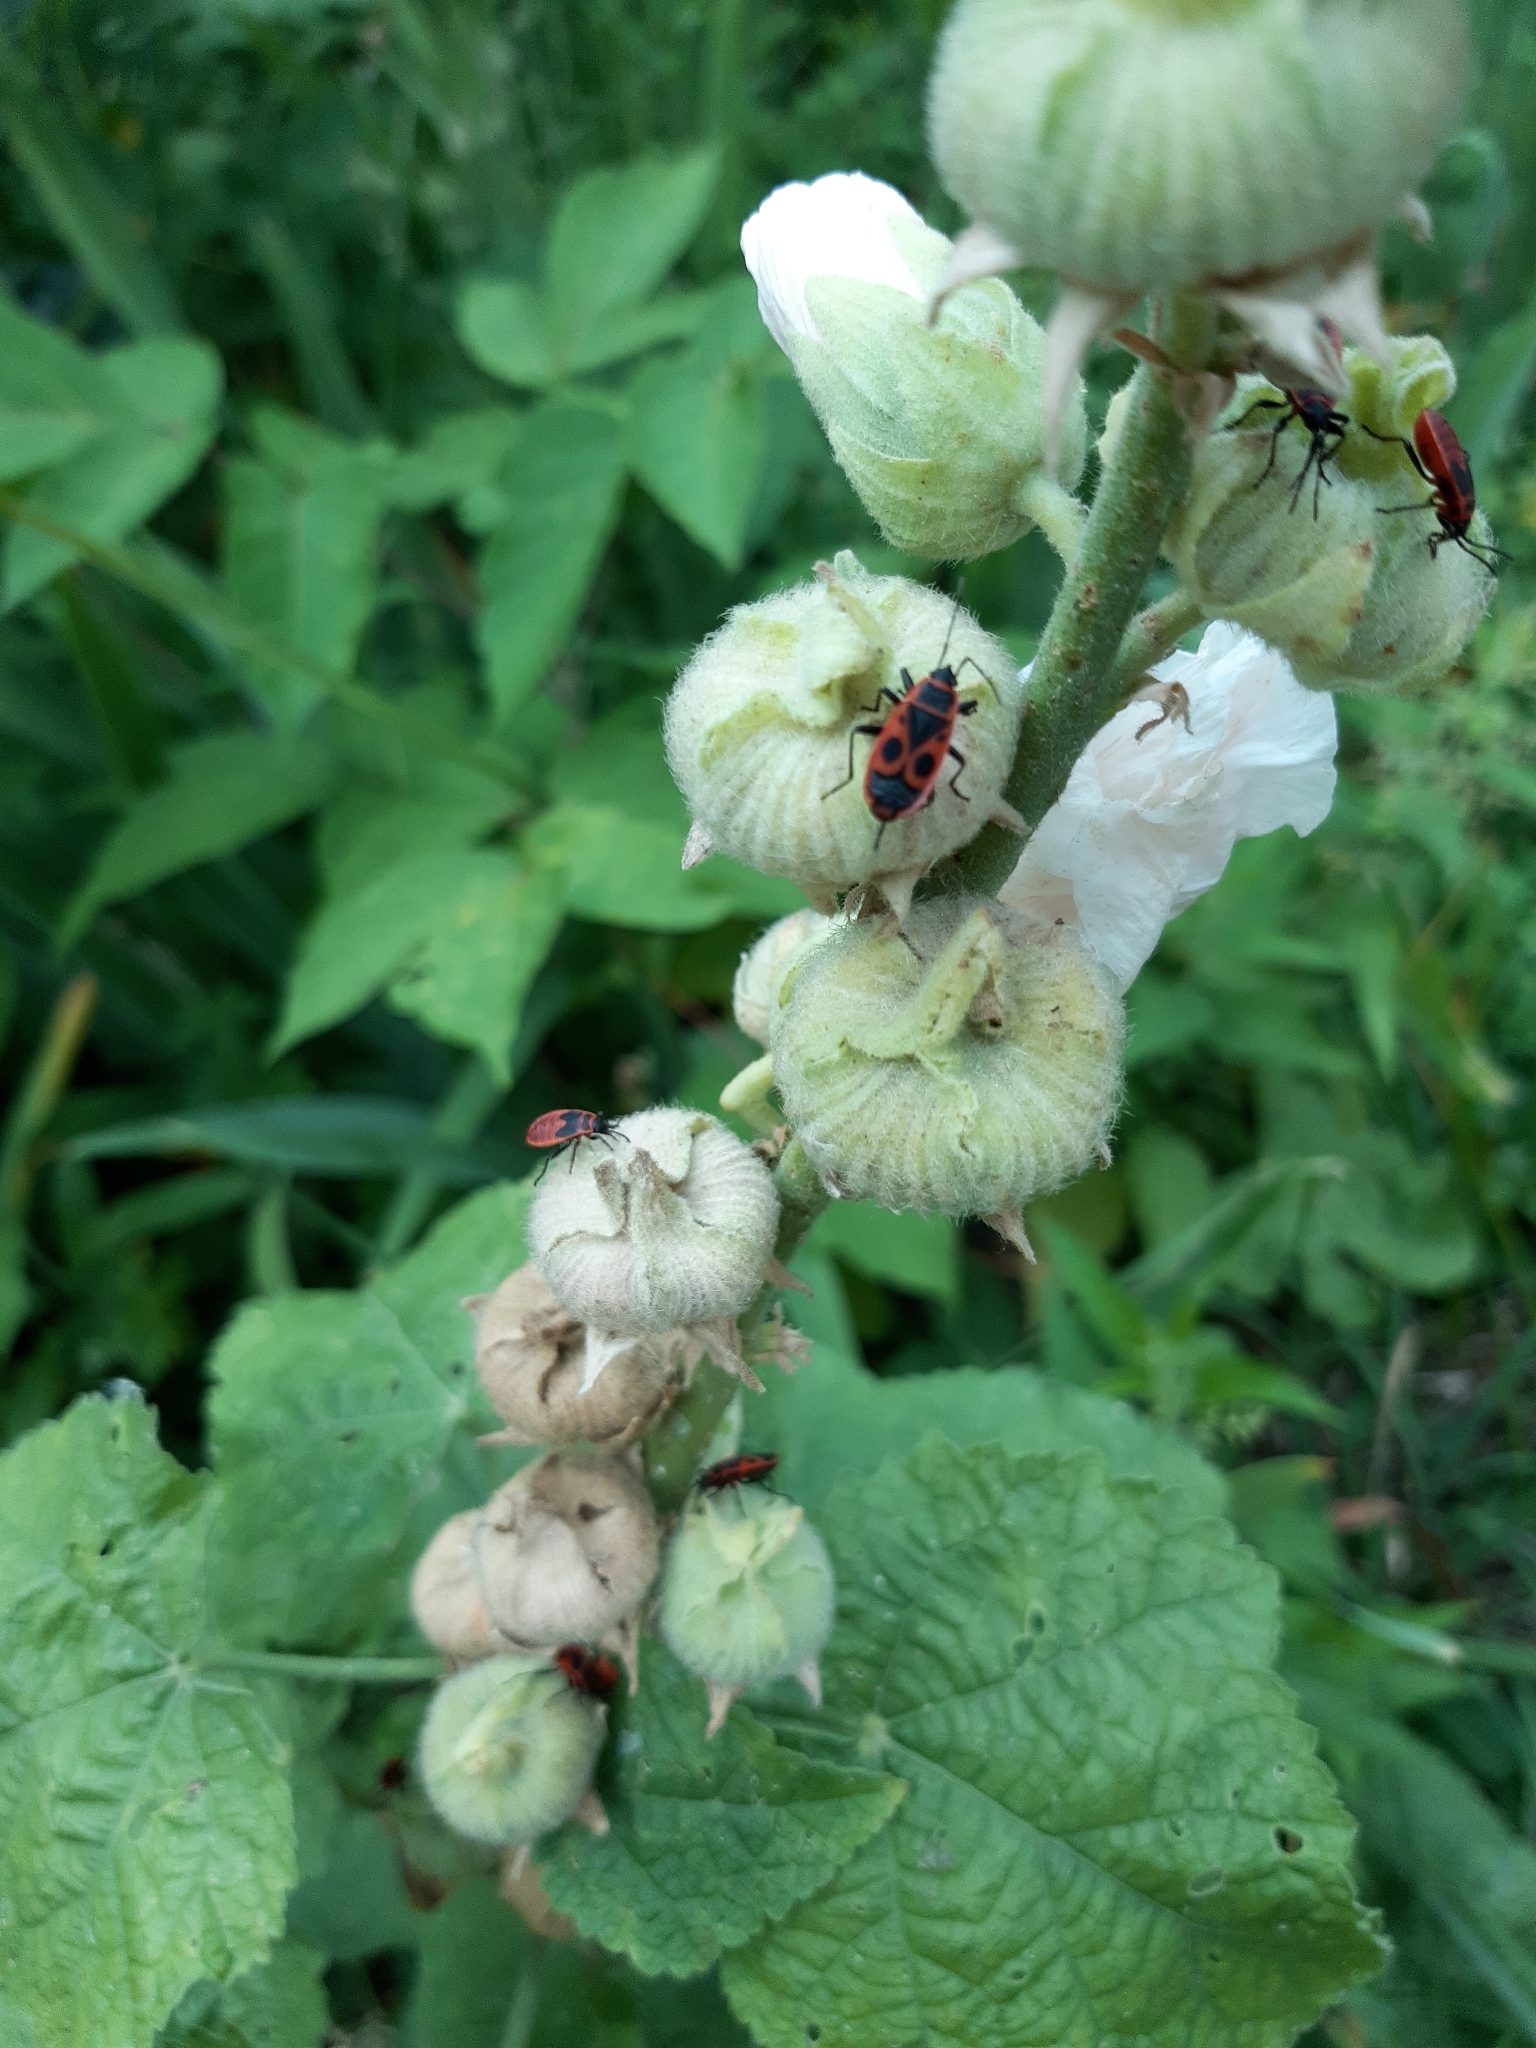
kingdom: Animalia
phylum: Arthropoda
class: Insecta
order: Hemiptera
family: Pyrrhocoridae
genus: Pyrrhocoris
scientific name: Pyrrhocoris apterus
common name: Firebug
